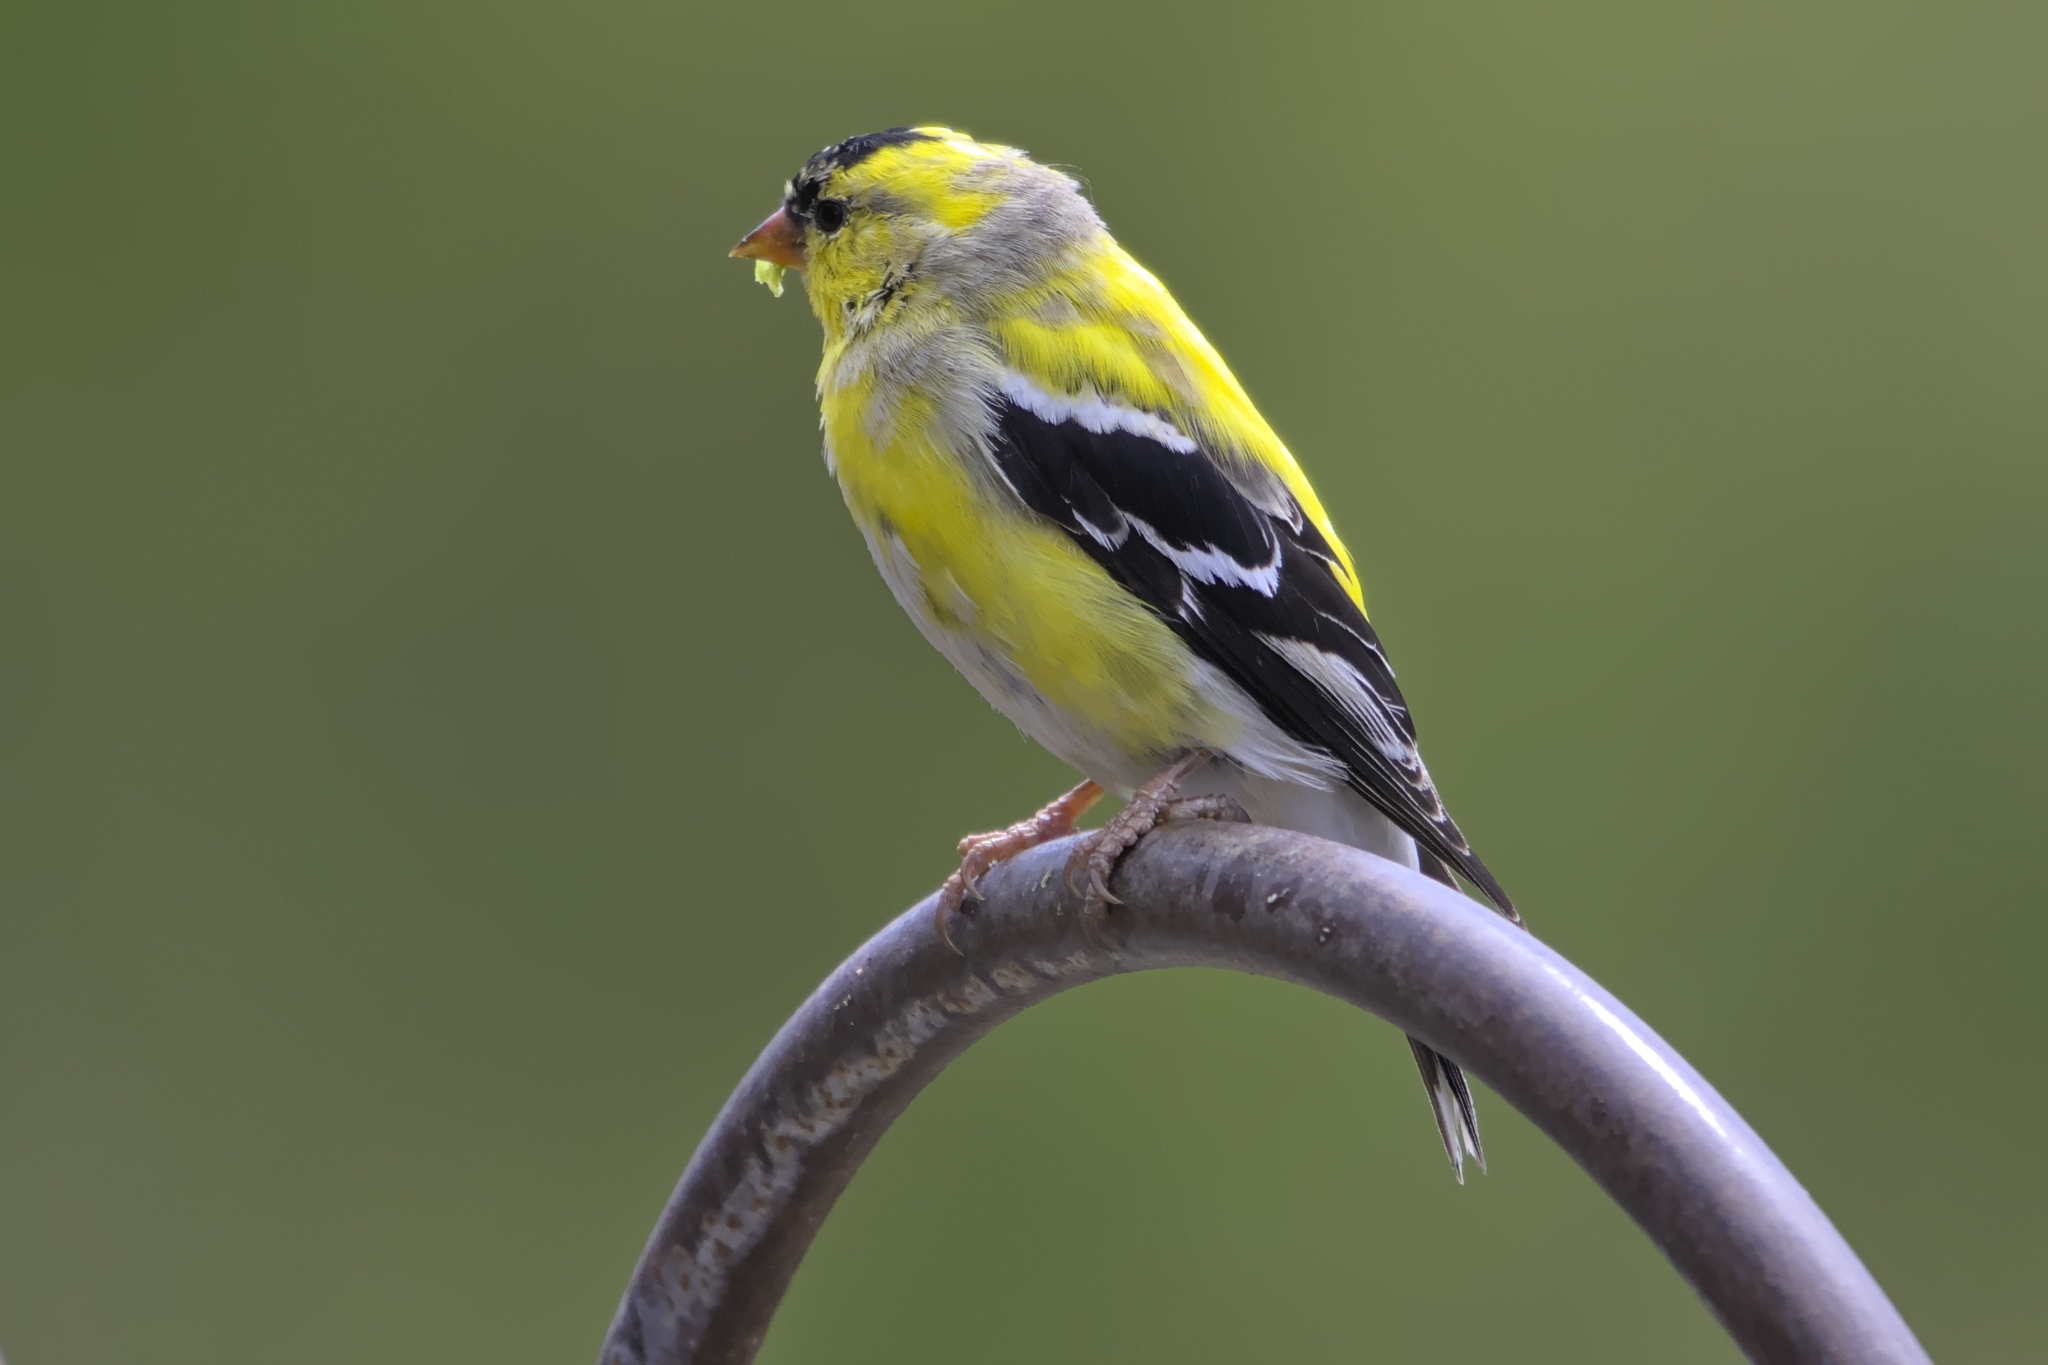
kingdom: Animalia
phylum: Chordata
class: Aves
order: Passeriformes
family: Fringillidae
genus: Spinus
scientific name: Spinus tristis
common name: American goldfinch
